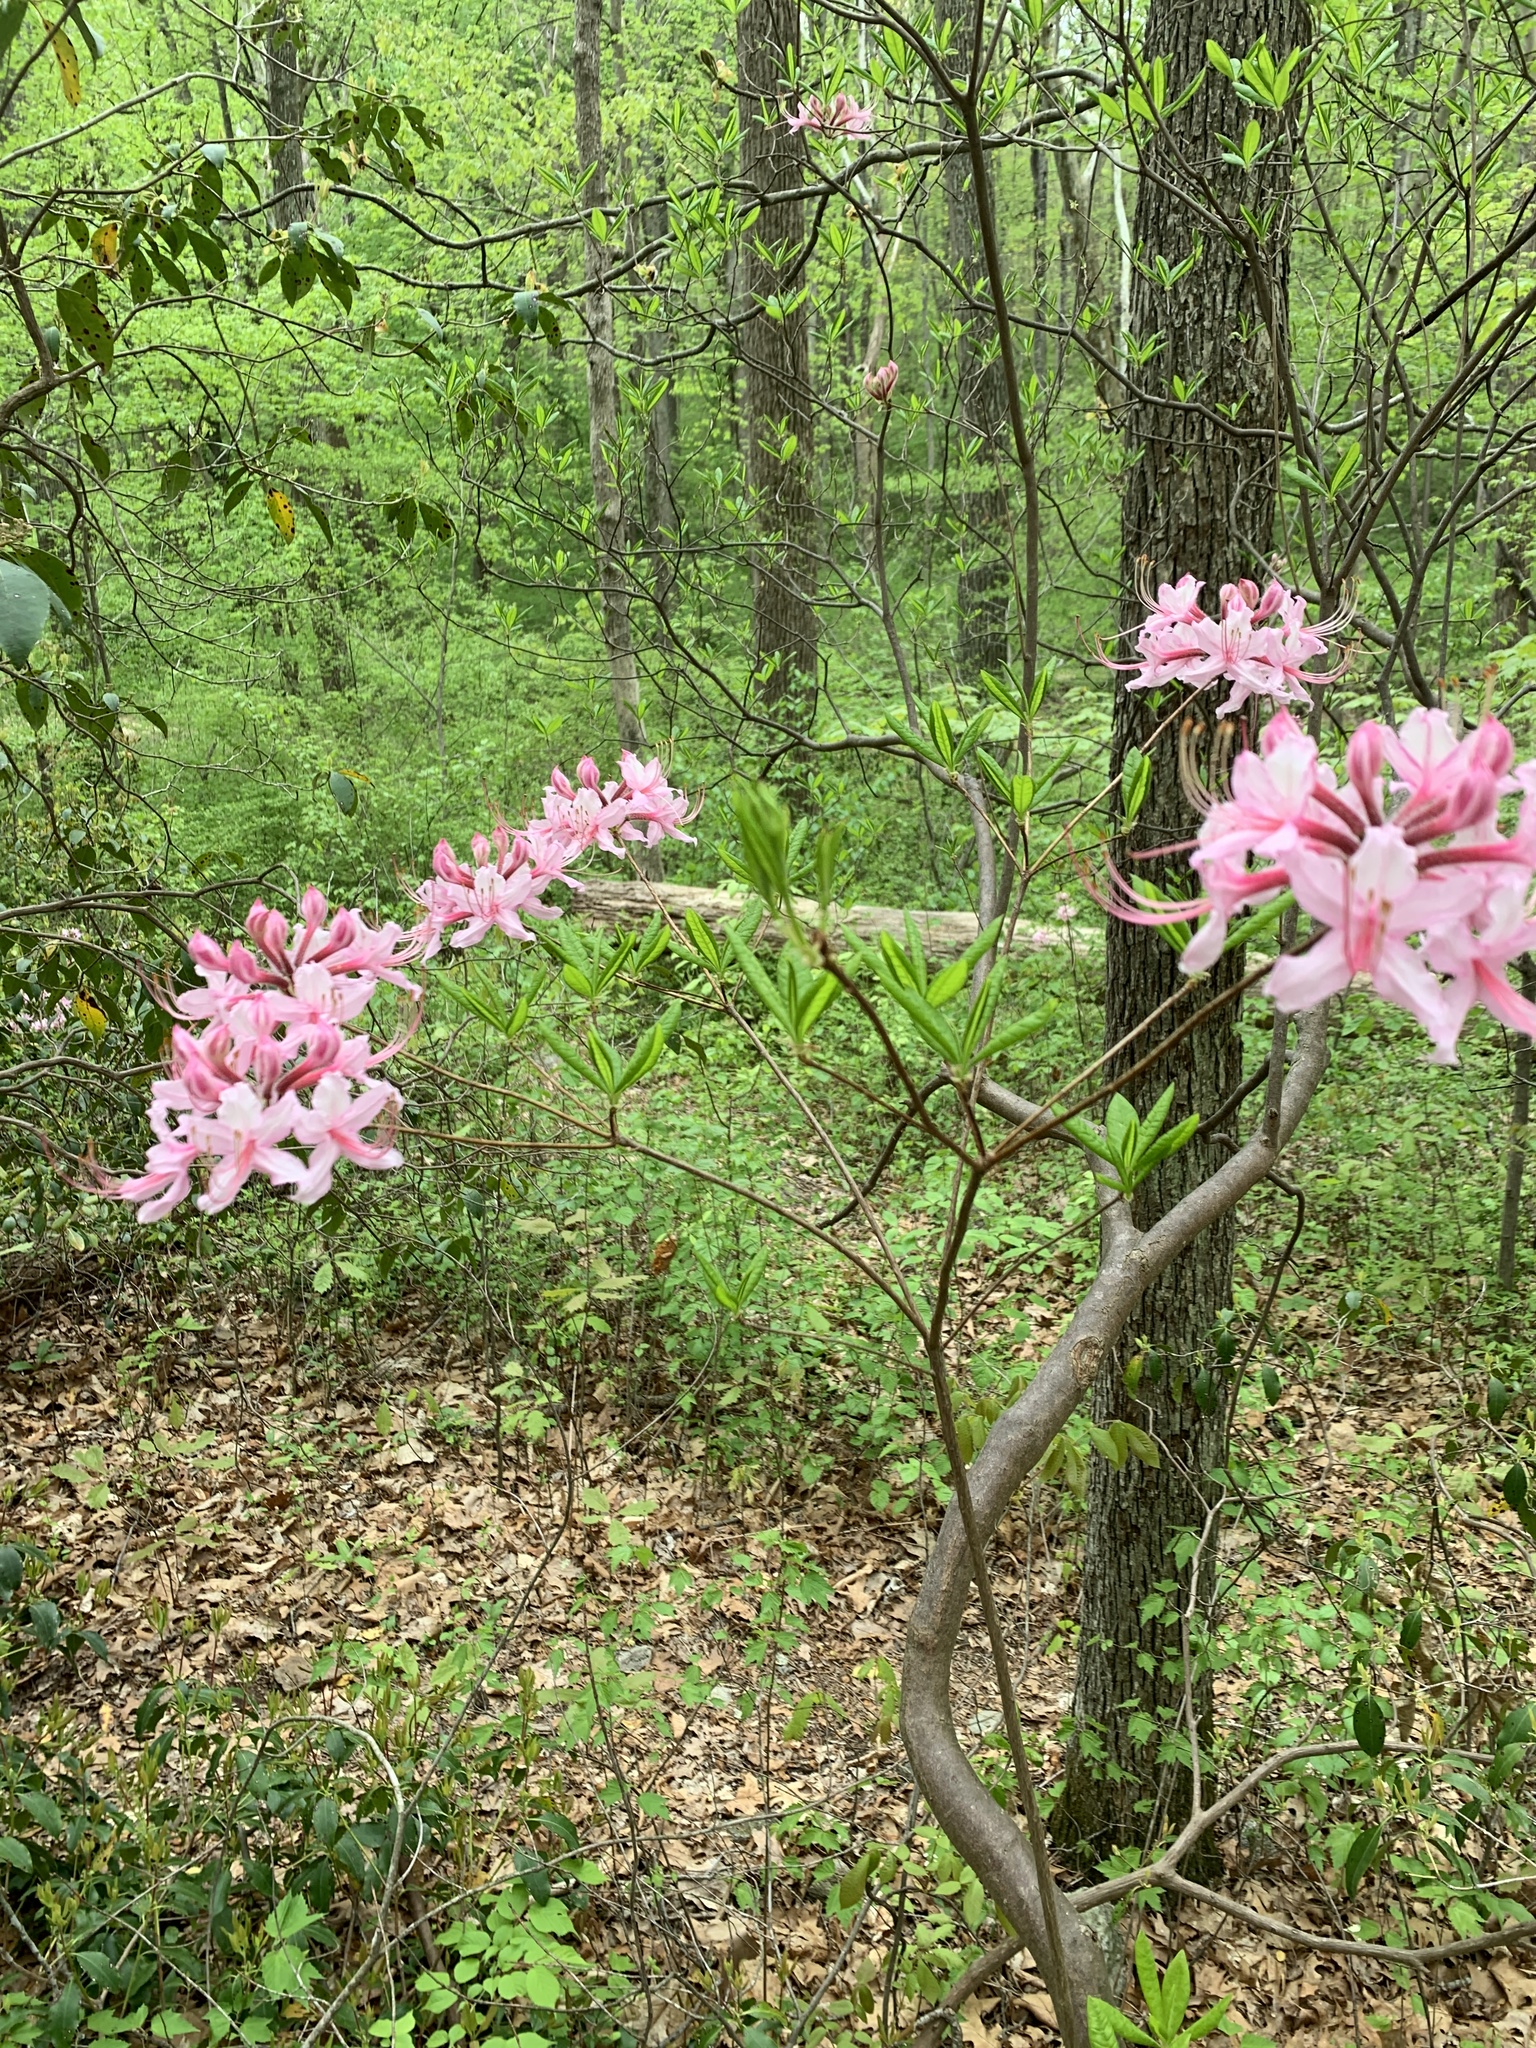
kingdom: Plantae
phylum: Tracheophyta
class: Magnoliopsida
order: Ericales
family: Ericaceae
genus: Rhododendron
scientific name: Rhododendron periclymenoides
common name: Election-pink
